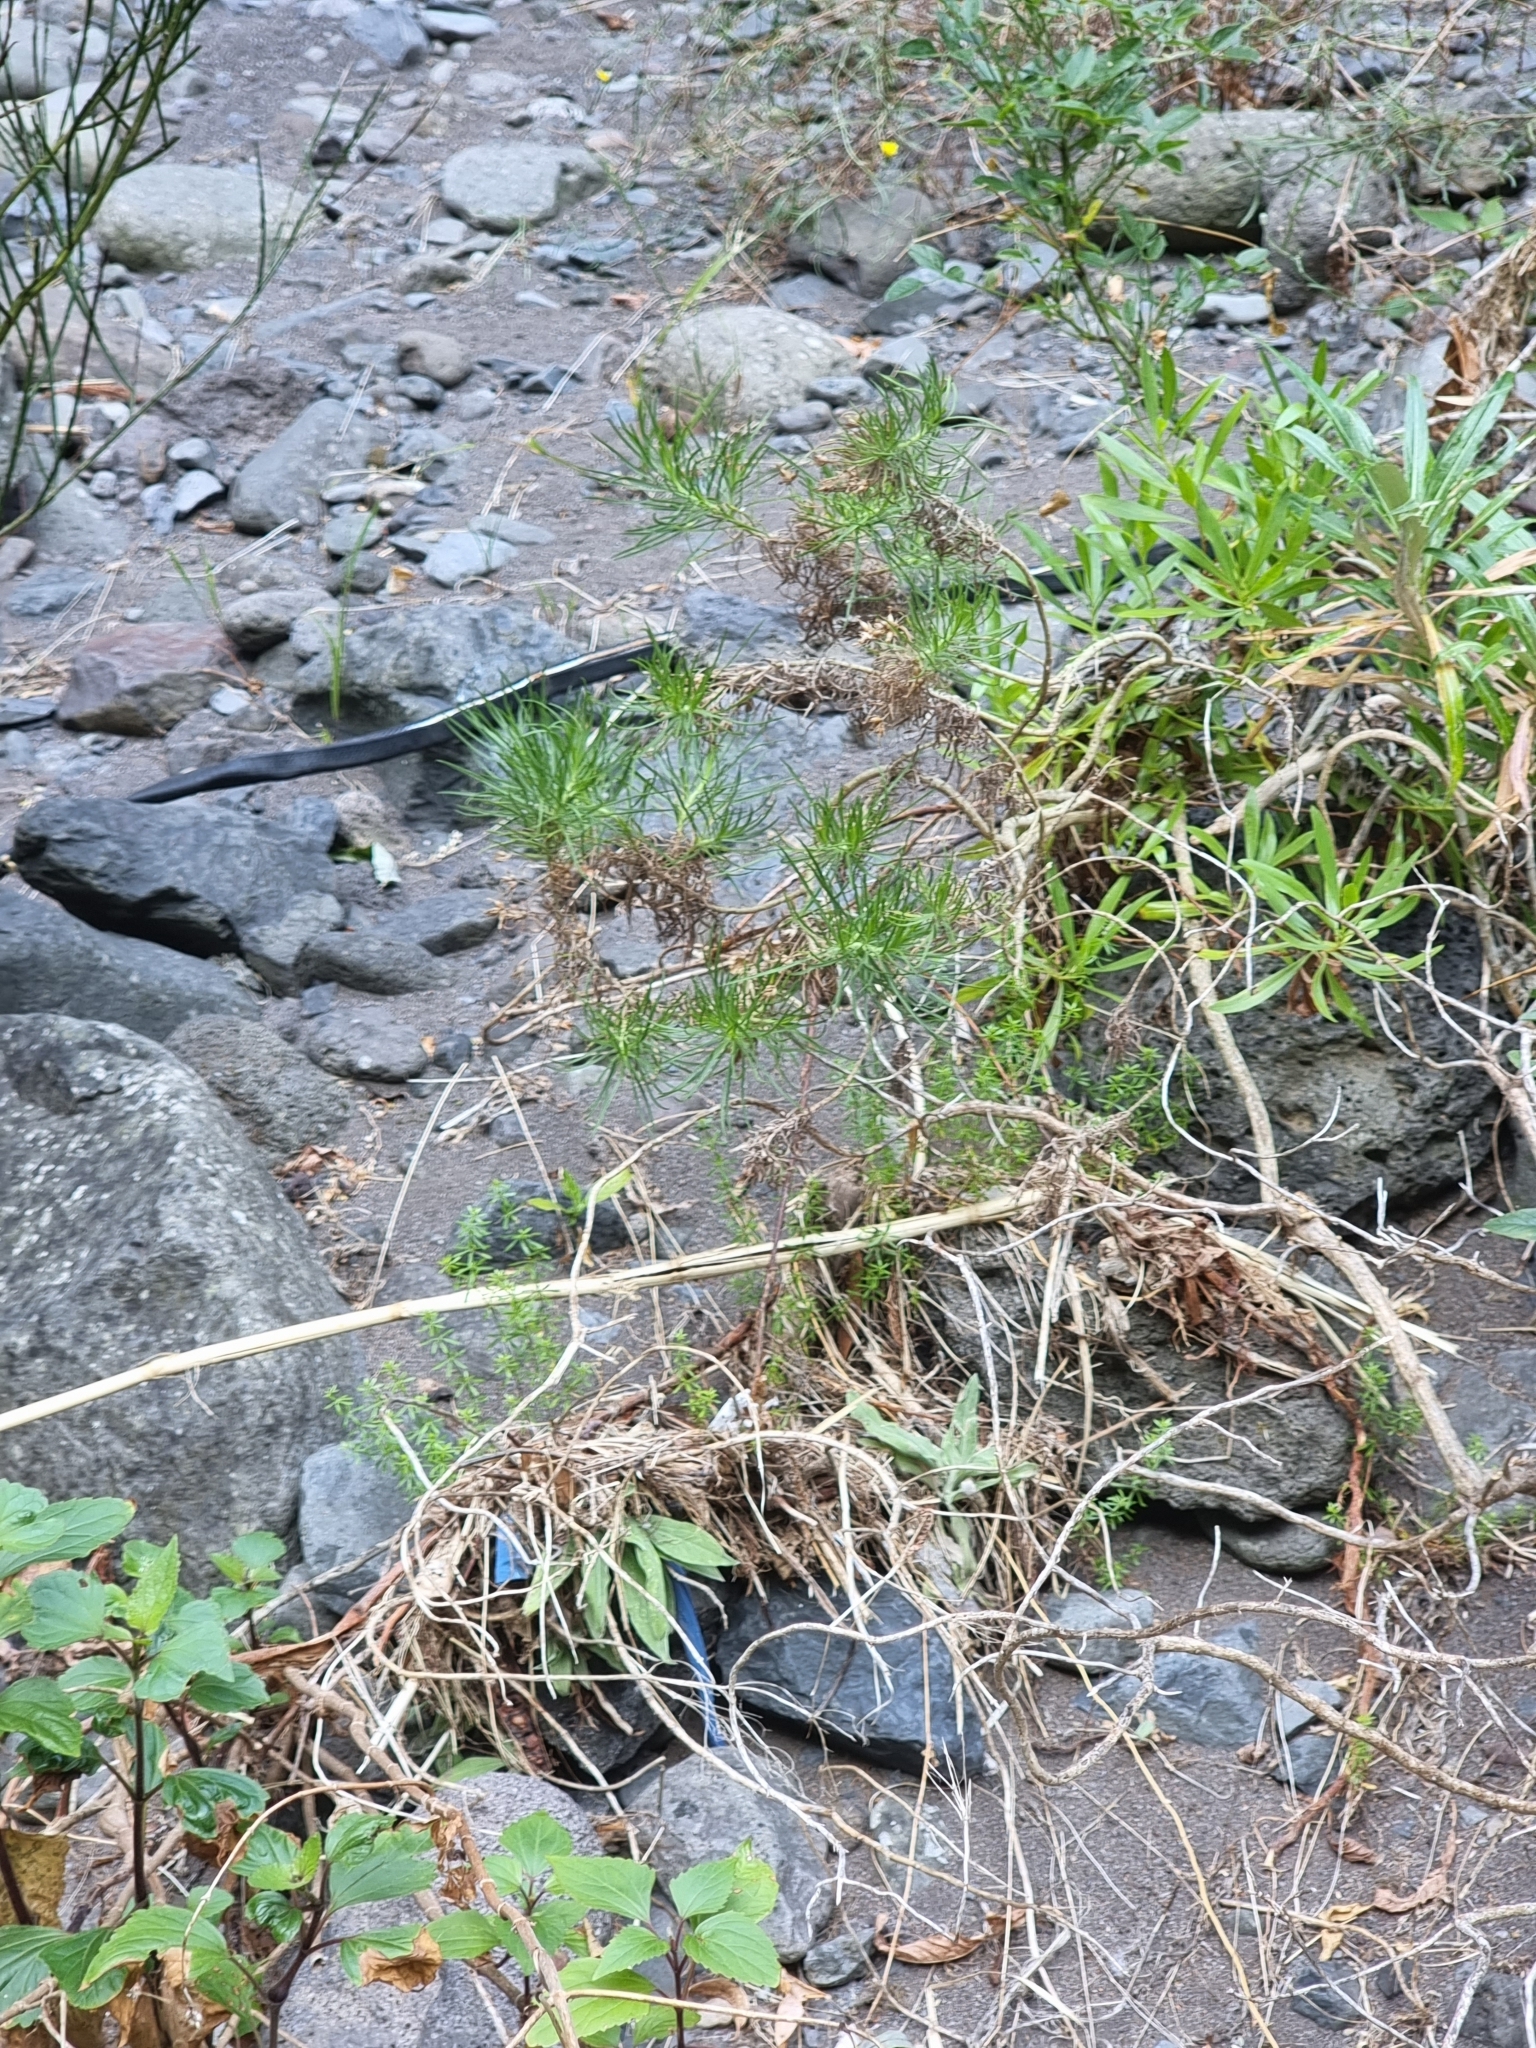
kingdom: Plantae
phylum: Tracheophyta
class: Magnoliopsida
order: Lamiales
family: Plantaginaceae
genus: Plantago
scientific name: Plantago arborescens
